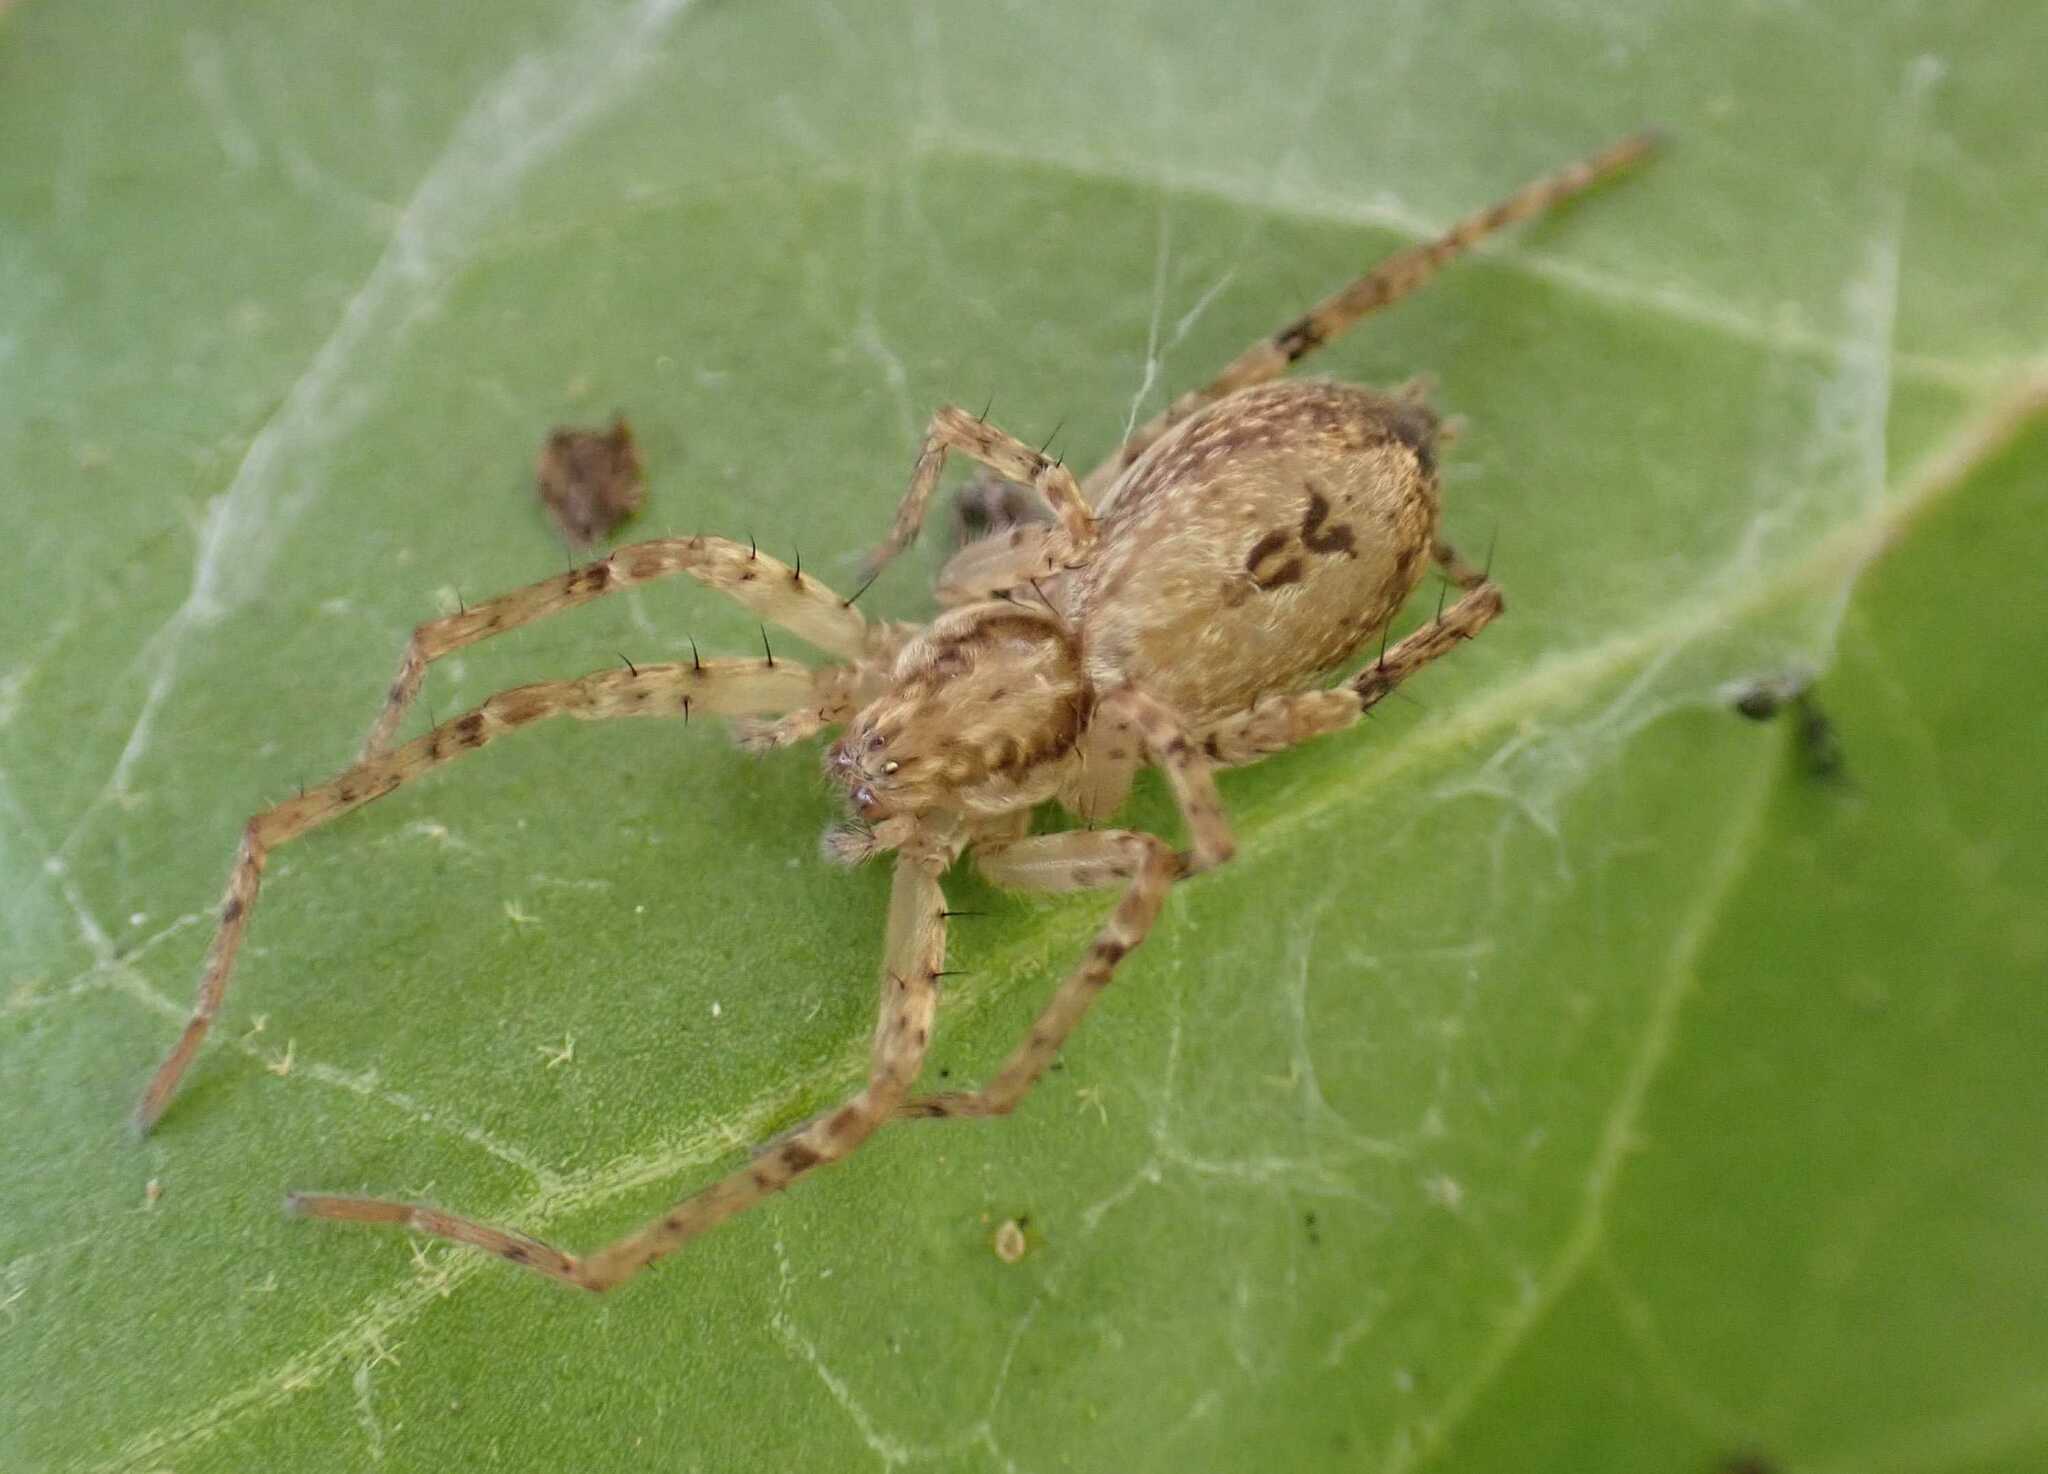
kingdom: Animalia
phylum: Arthropoda
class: Arachnida
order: Araneae
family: Anyphaenidae
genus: Anyphaena
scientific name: Anyphaena accentuata
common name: Buzzing spider
